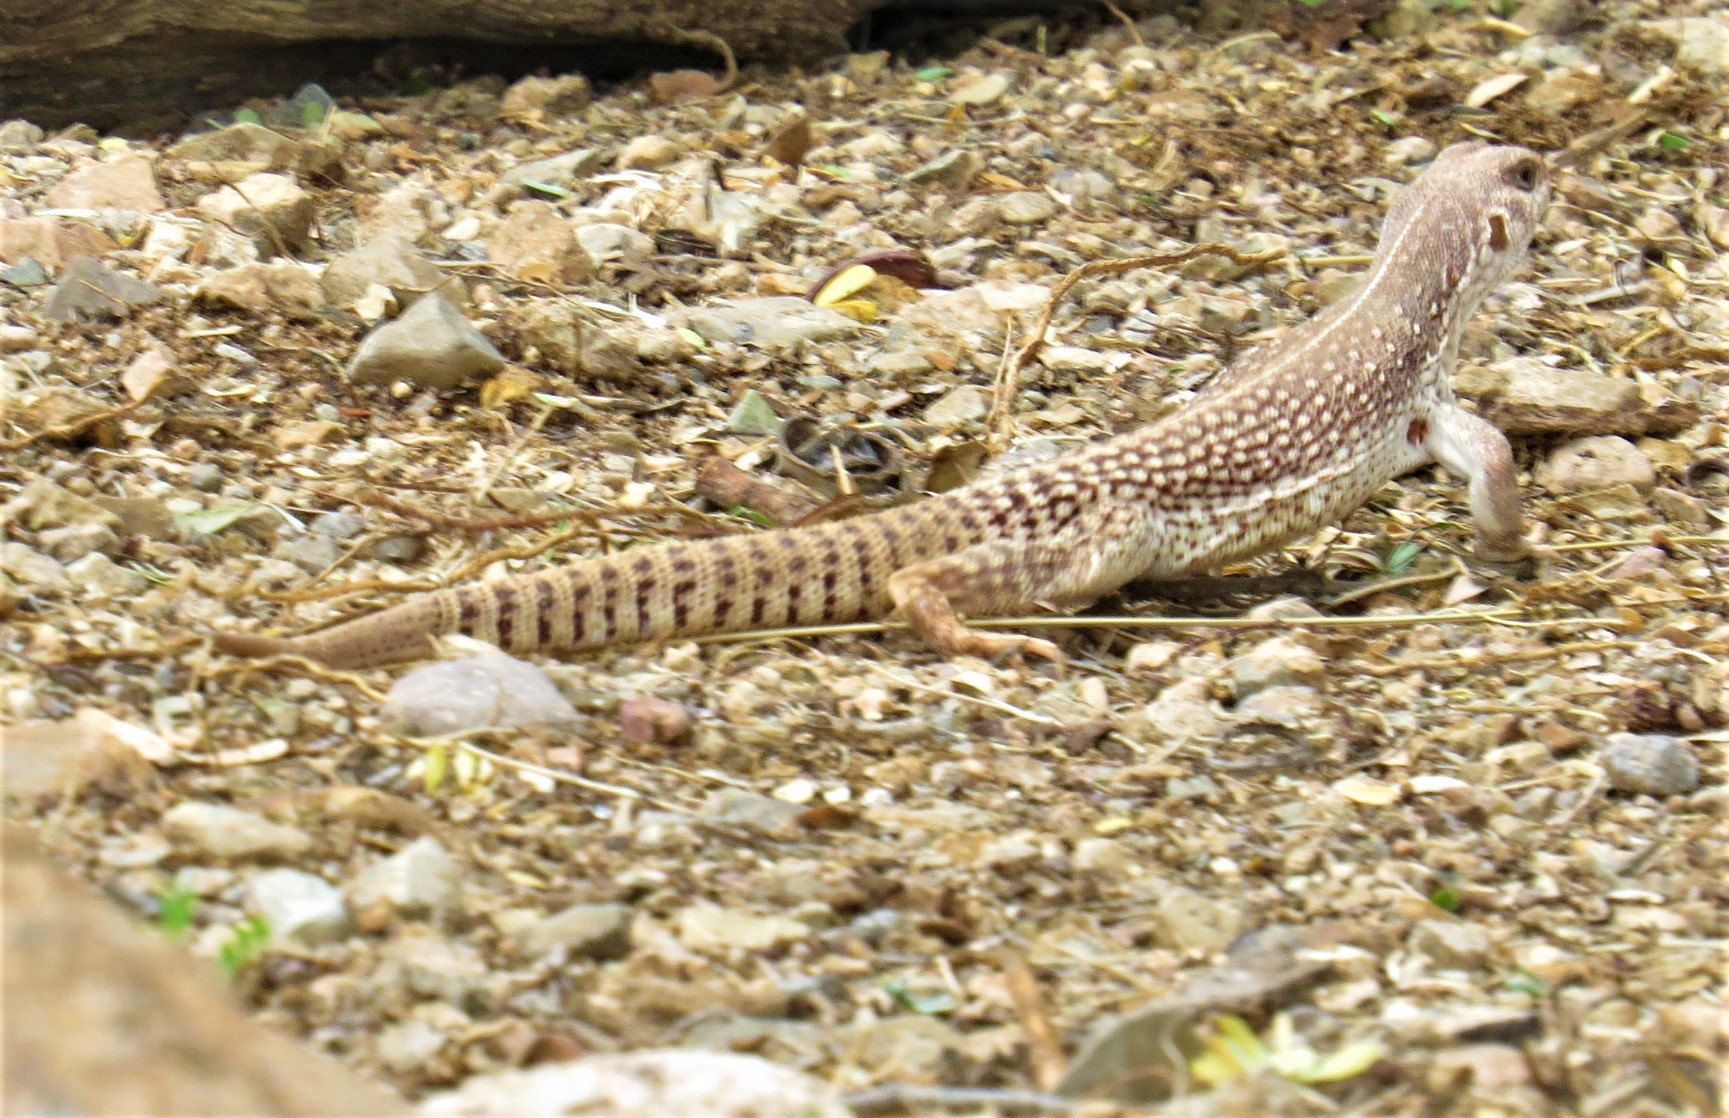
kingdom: Animalia
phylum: Chordata
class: Squamata
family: Iguanidae
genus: Dipsosaurus
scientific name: Dipsosaurus dorsalis
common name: Desert iguana
